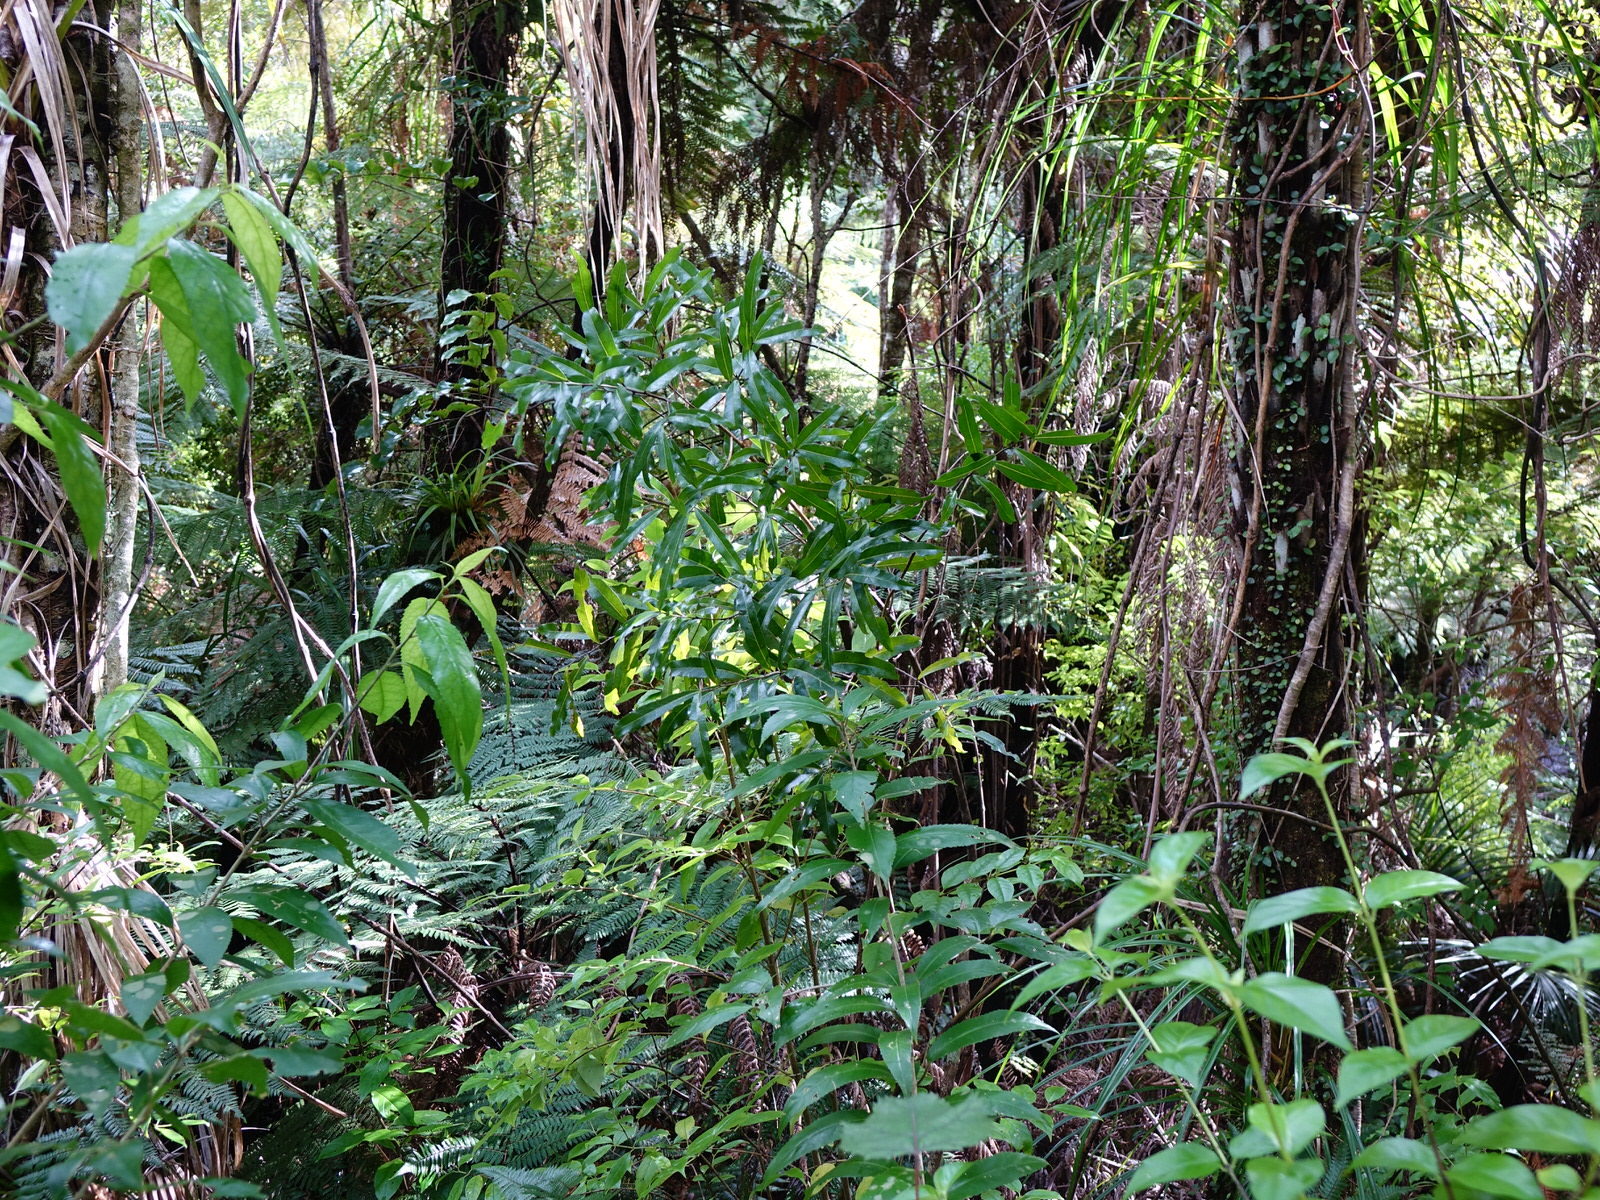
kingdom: Plantae
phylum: Tracheophyta
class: Magnoliopsida
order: Santalales
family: Nanodeaceae
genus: Mida
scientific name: Mida salicifolia
